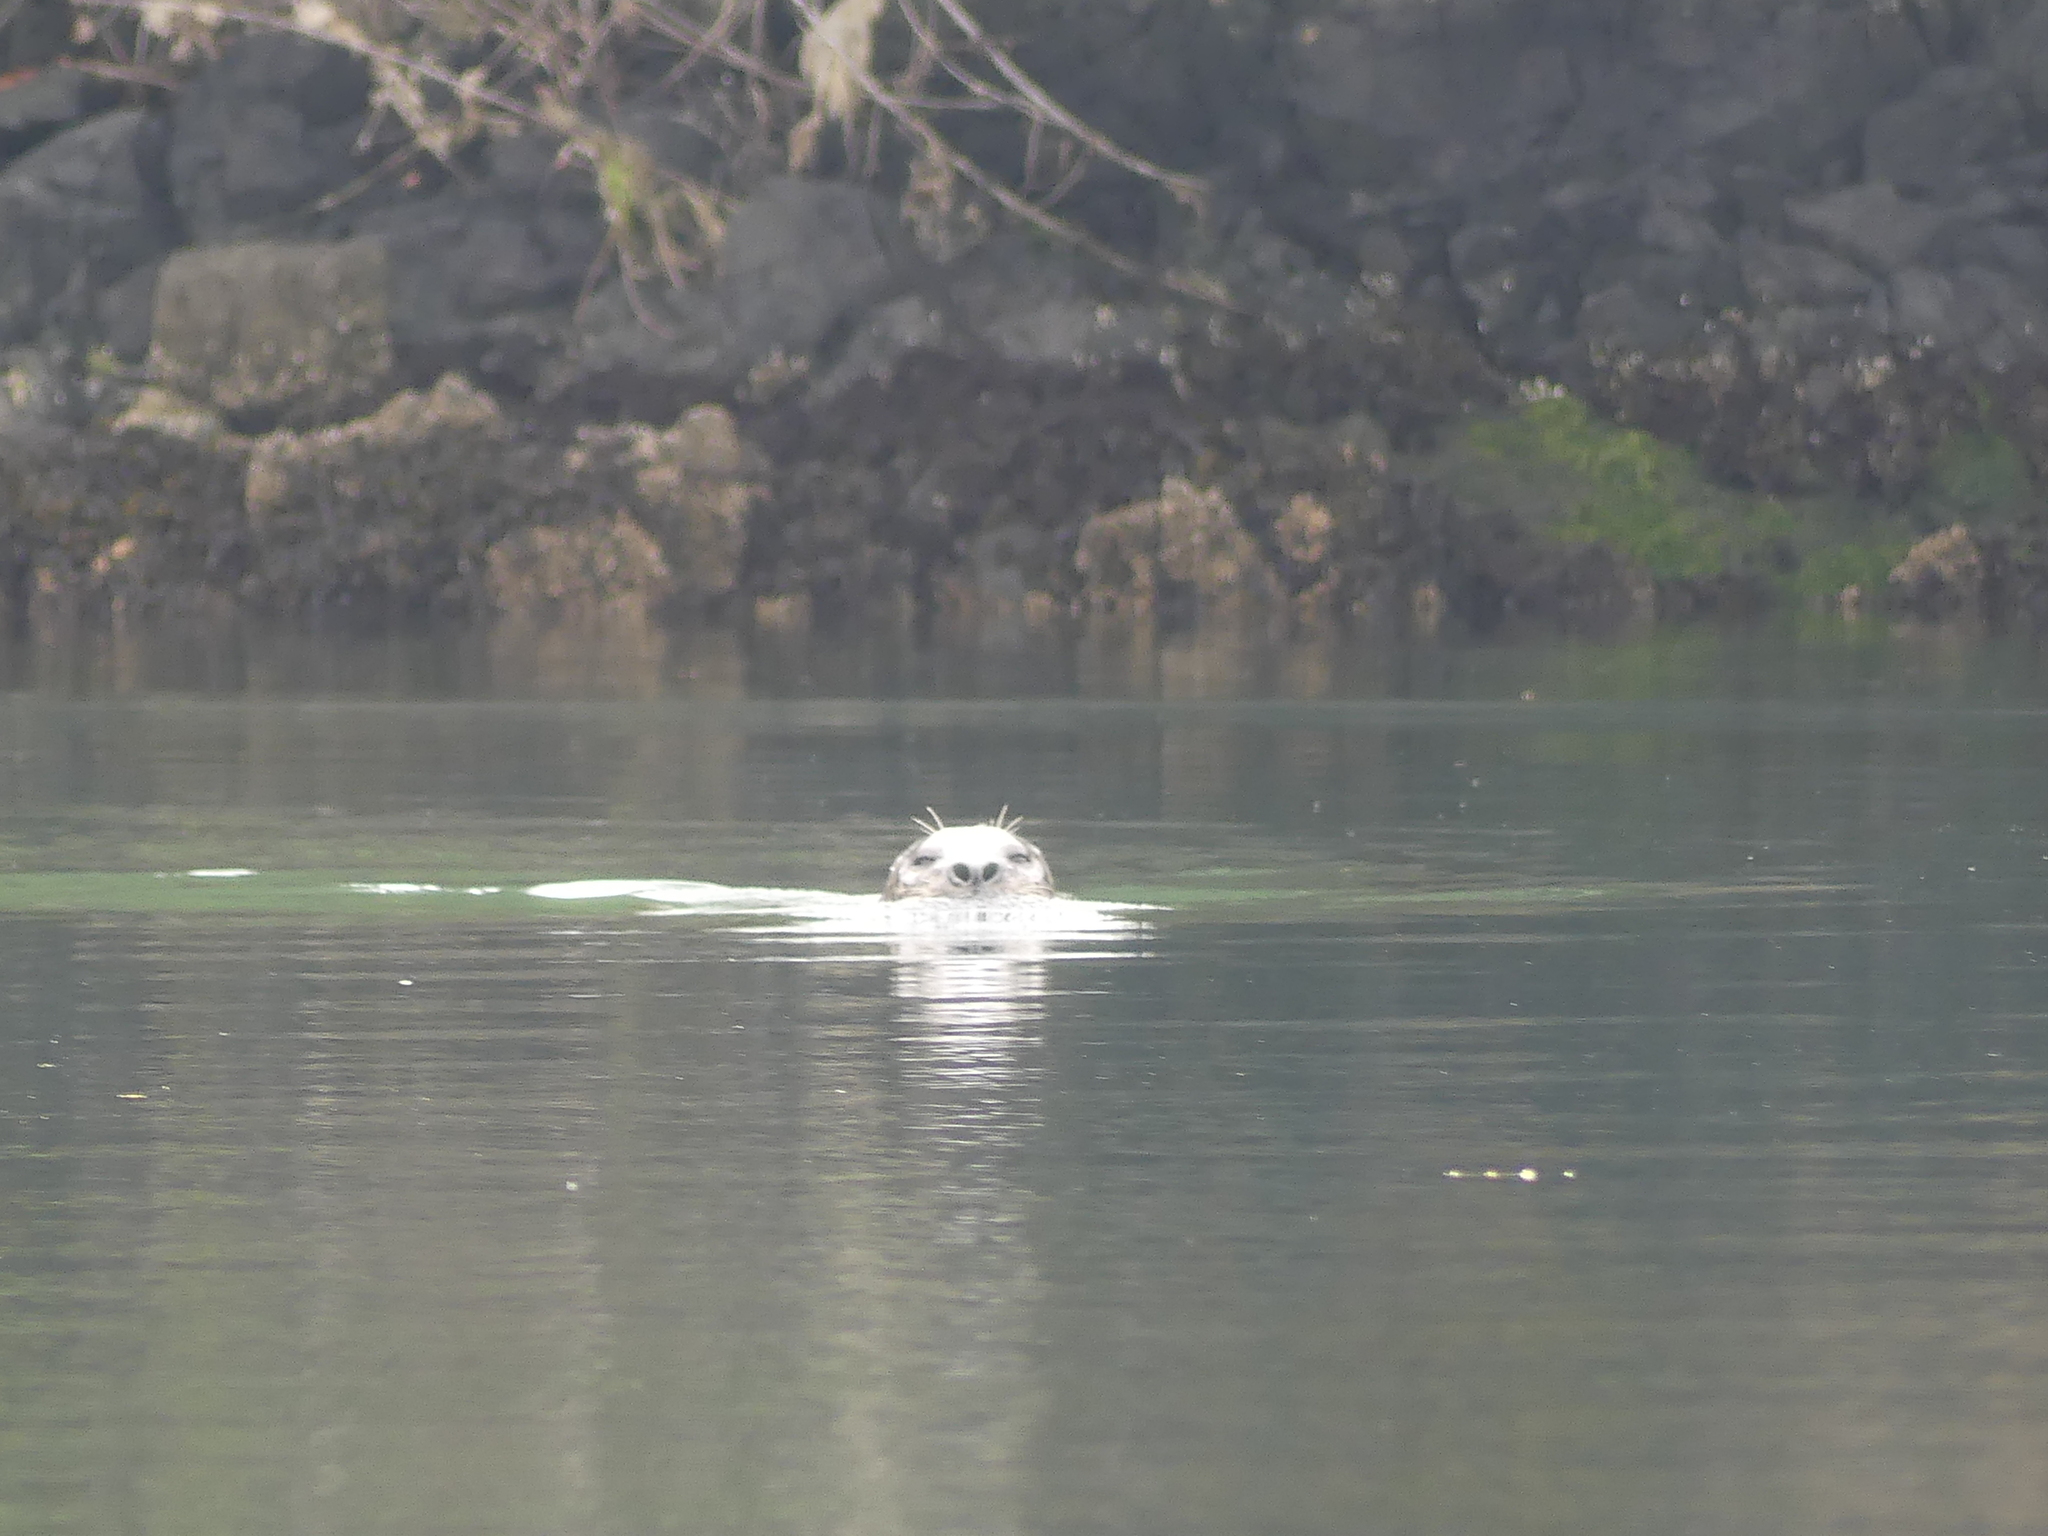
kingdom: Animalia
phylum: Chordata
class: Mammalia
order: Carnivora
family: Phocidae
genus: Phoca
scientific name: Phoca vitulina
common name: Harbor seal
